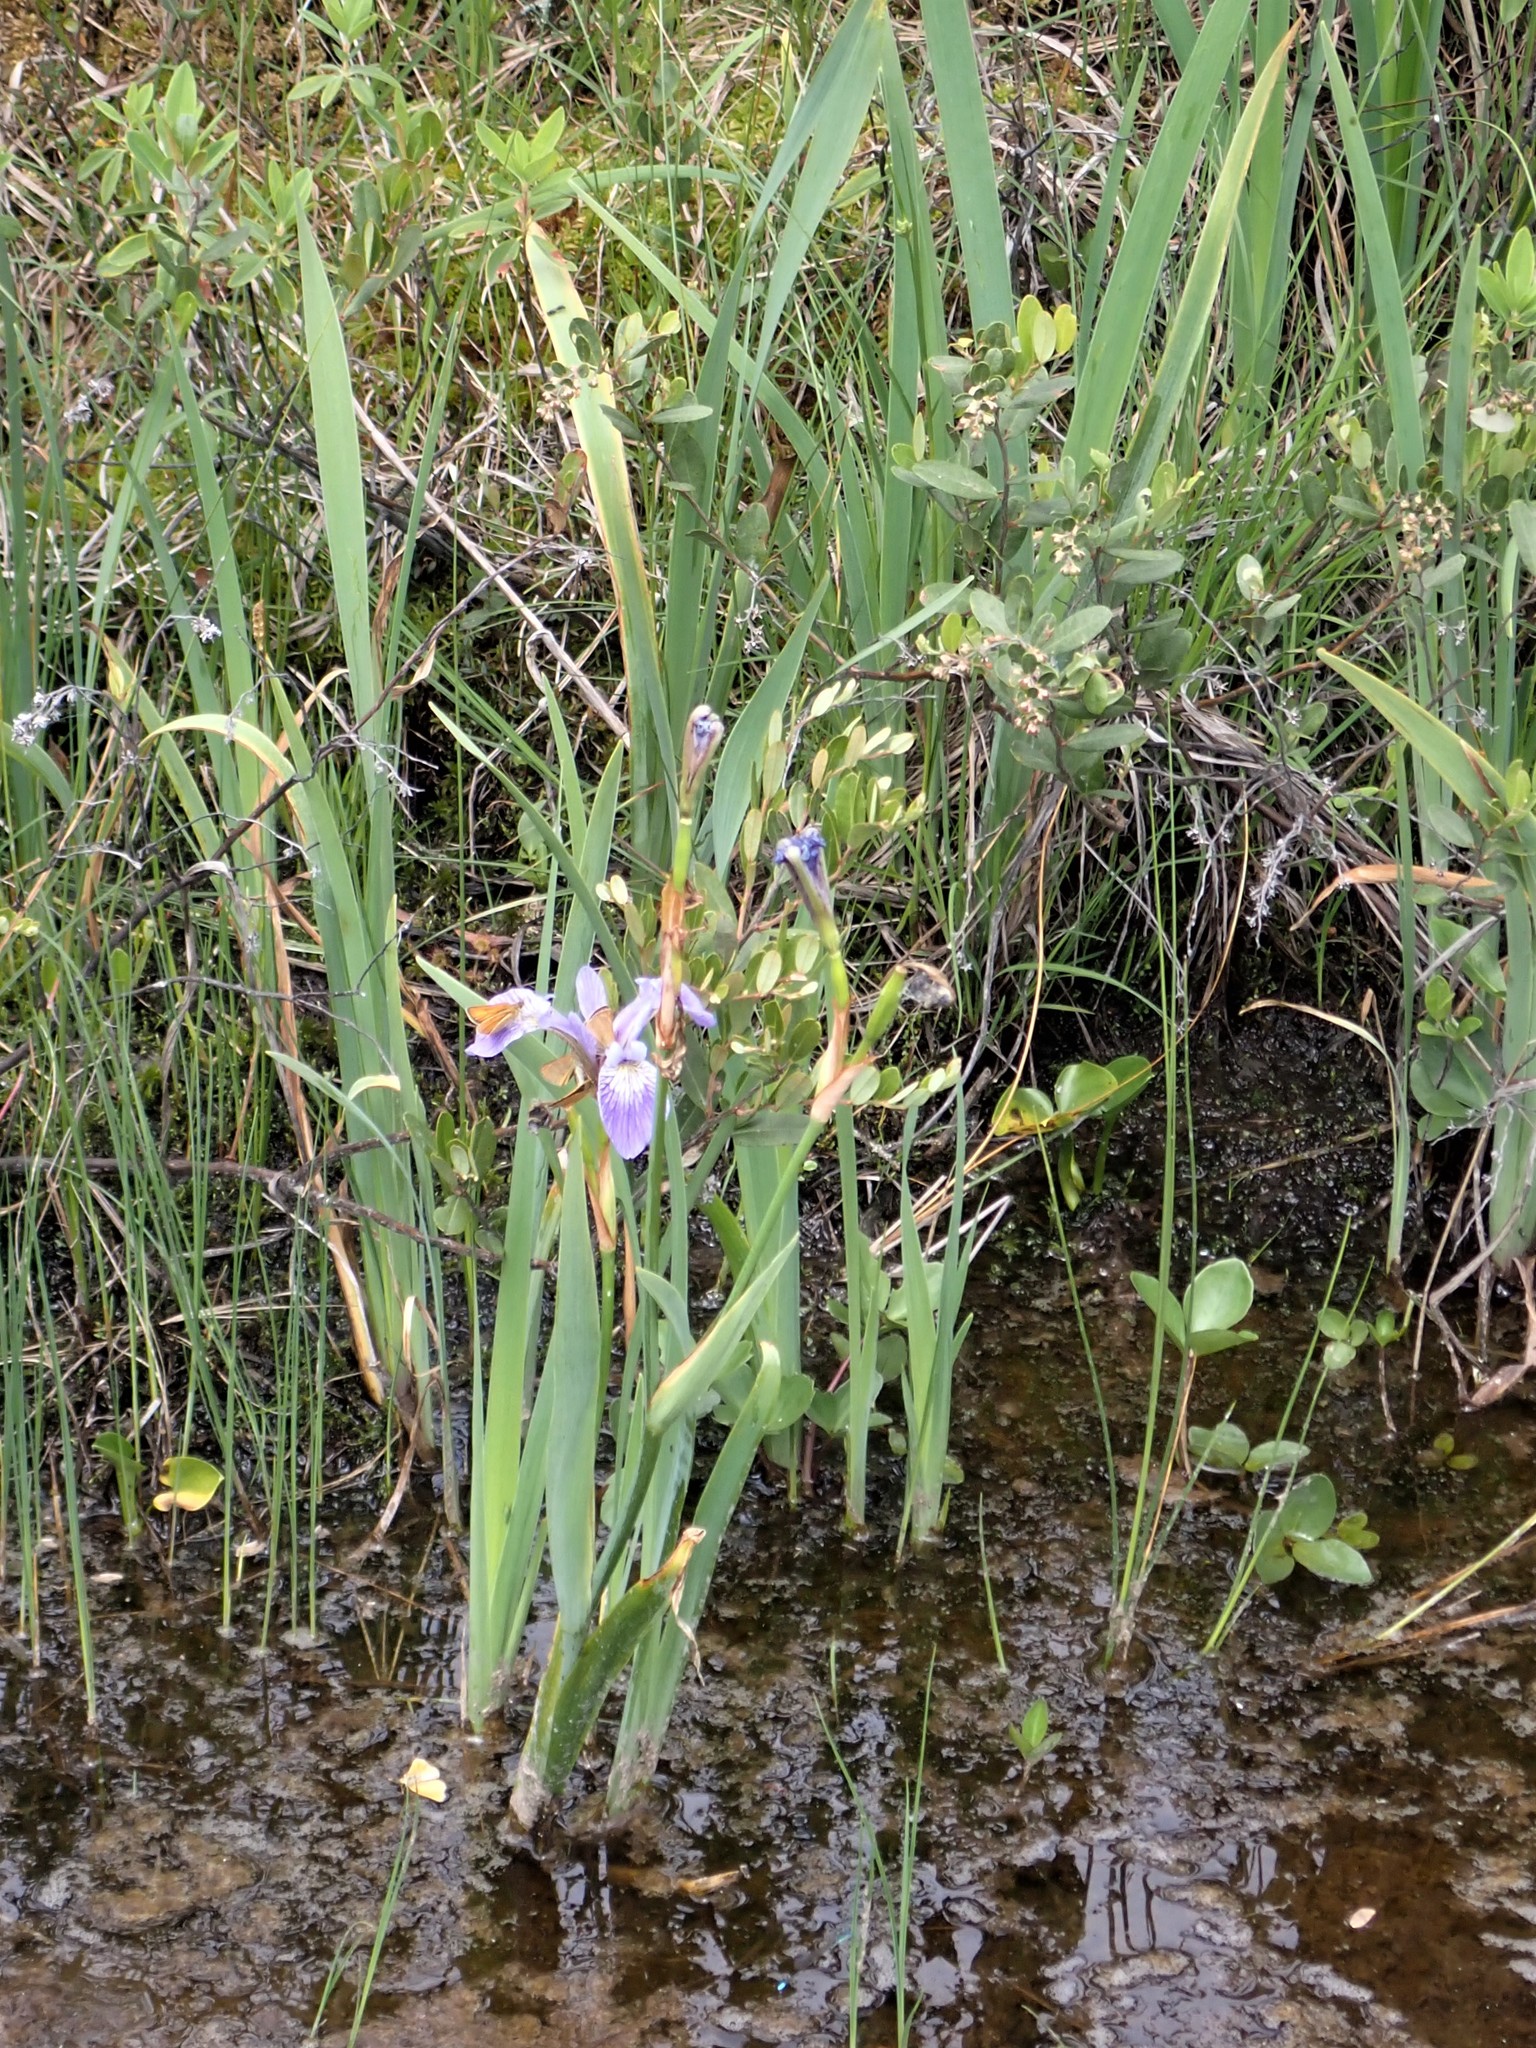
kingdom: Plantae
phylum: Tracheophyta
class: Liliopsida
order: Asparagales
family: Iridaceae
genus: Iris
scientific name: Iris versicolor
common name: Purple iris
